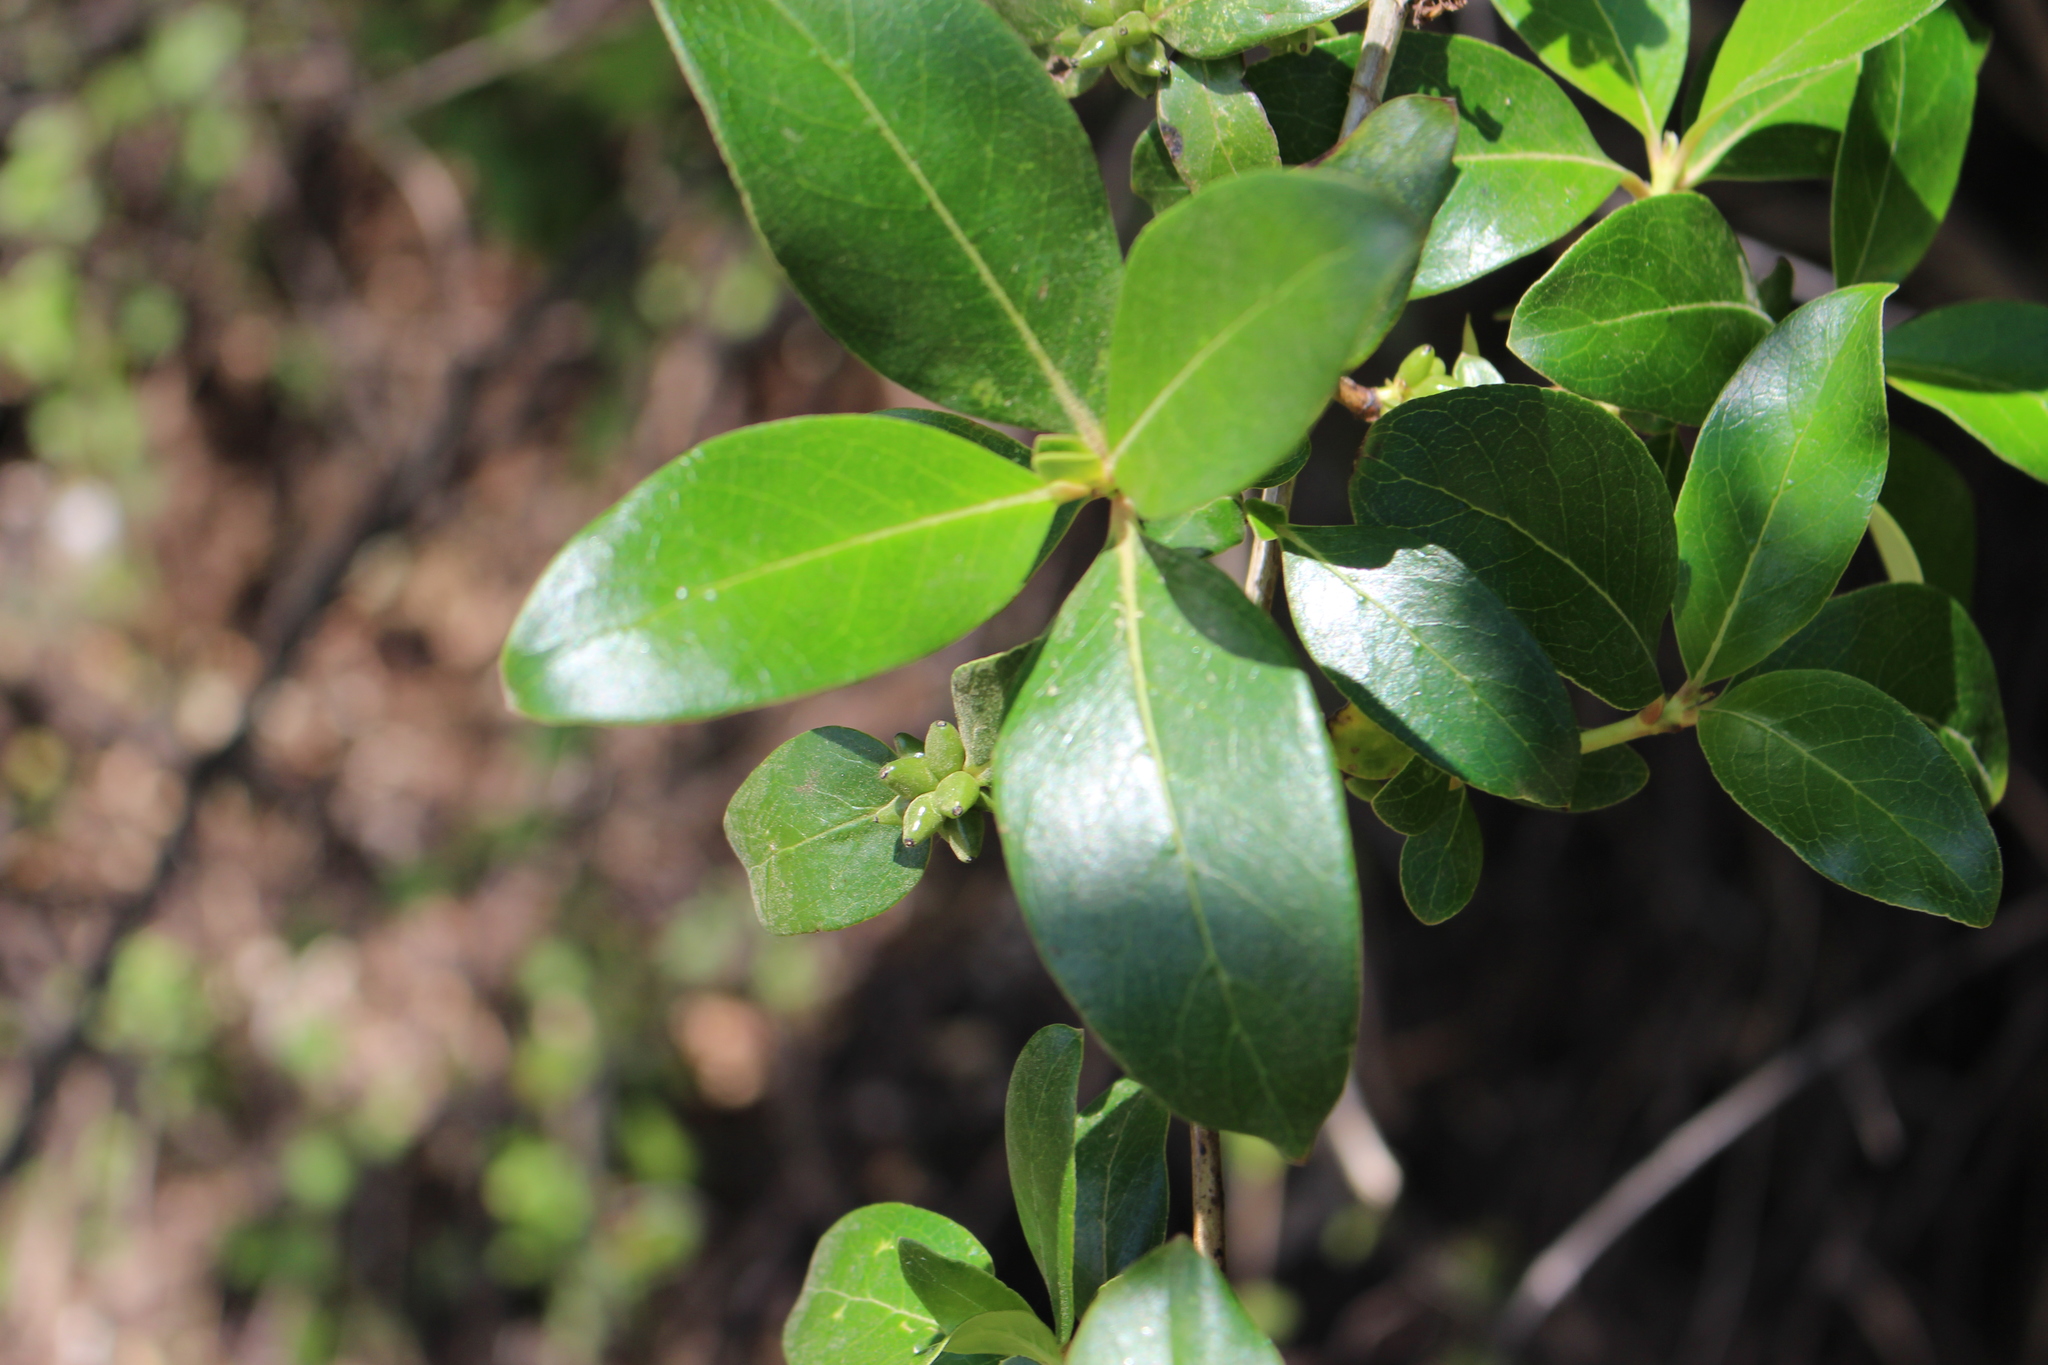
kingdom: Plantae
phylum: Tracheophyta
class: Magnoliopsida
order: Gentianales
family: Rubiaceae
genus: Coprosma
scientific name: Coprosma robusta
